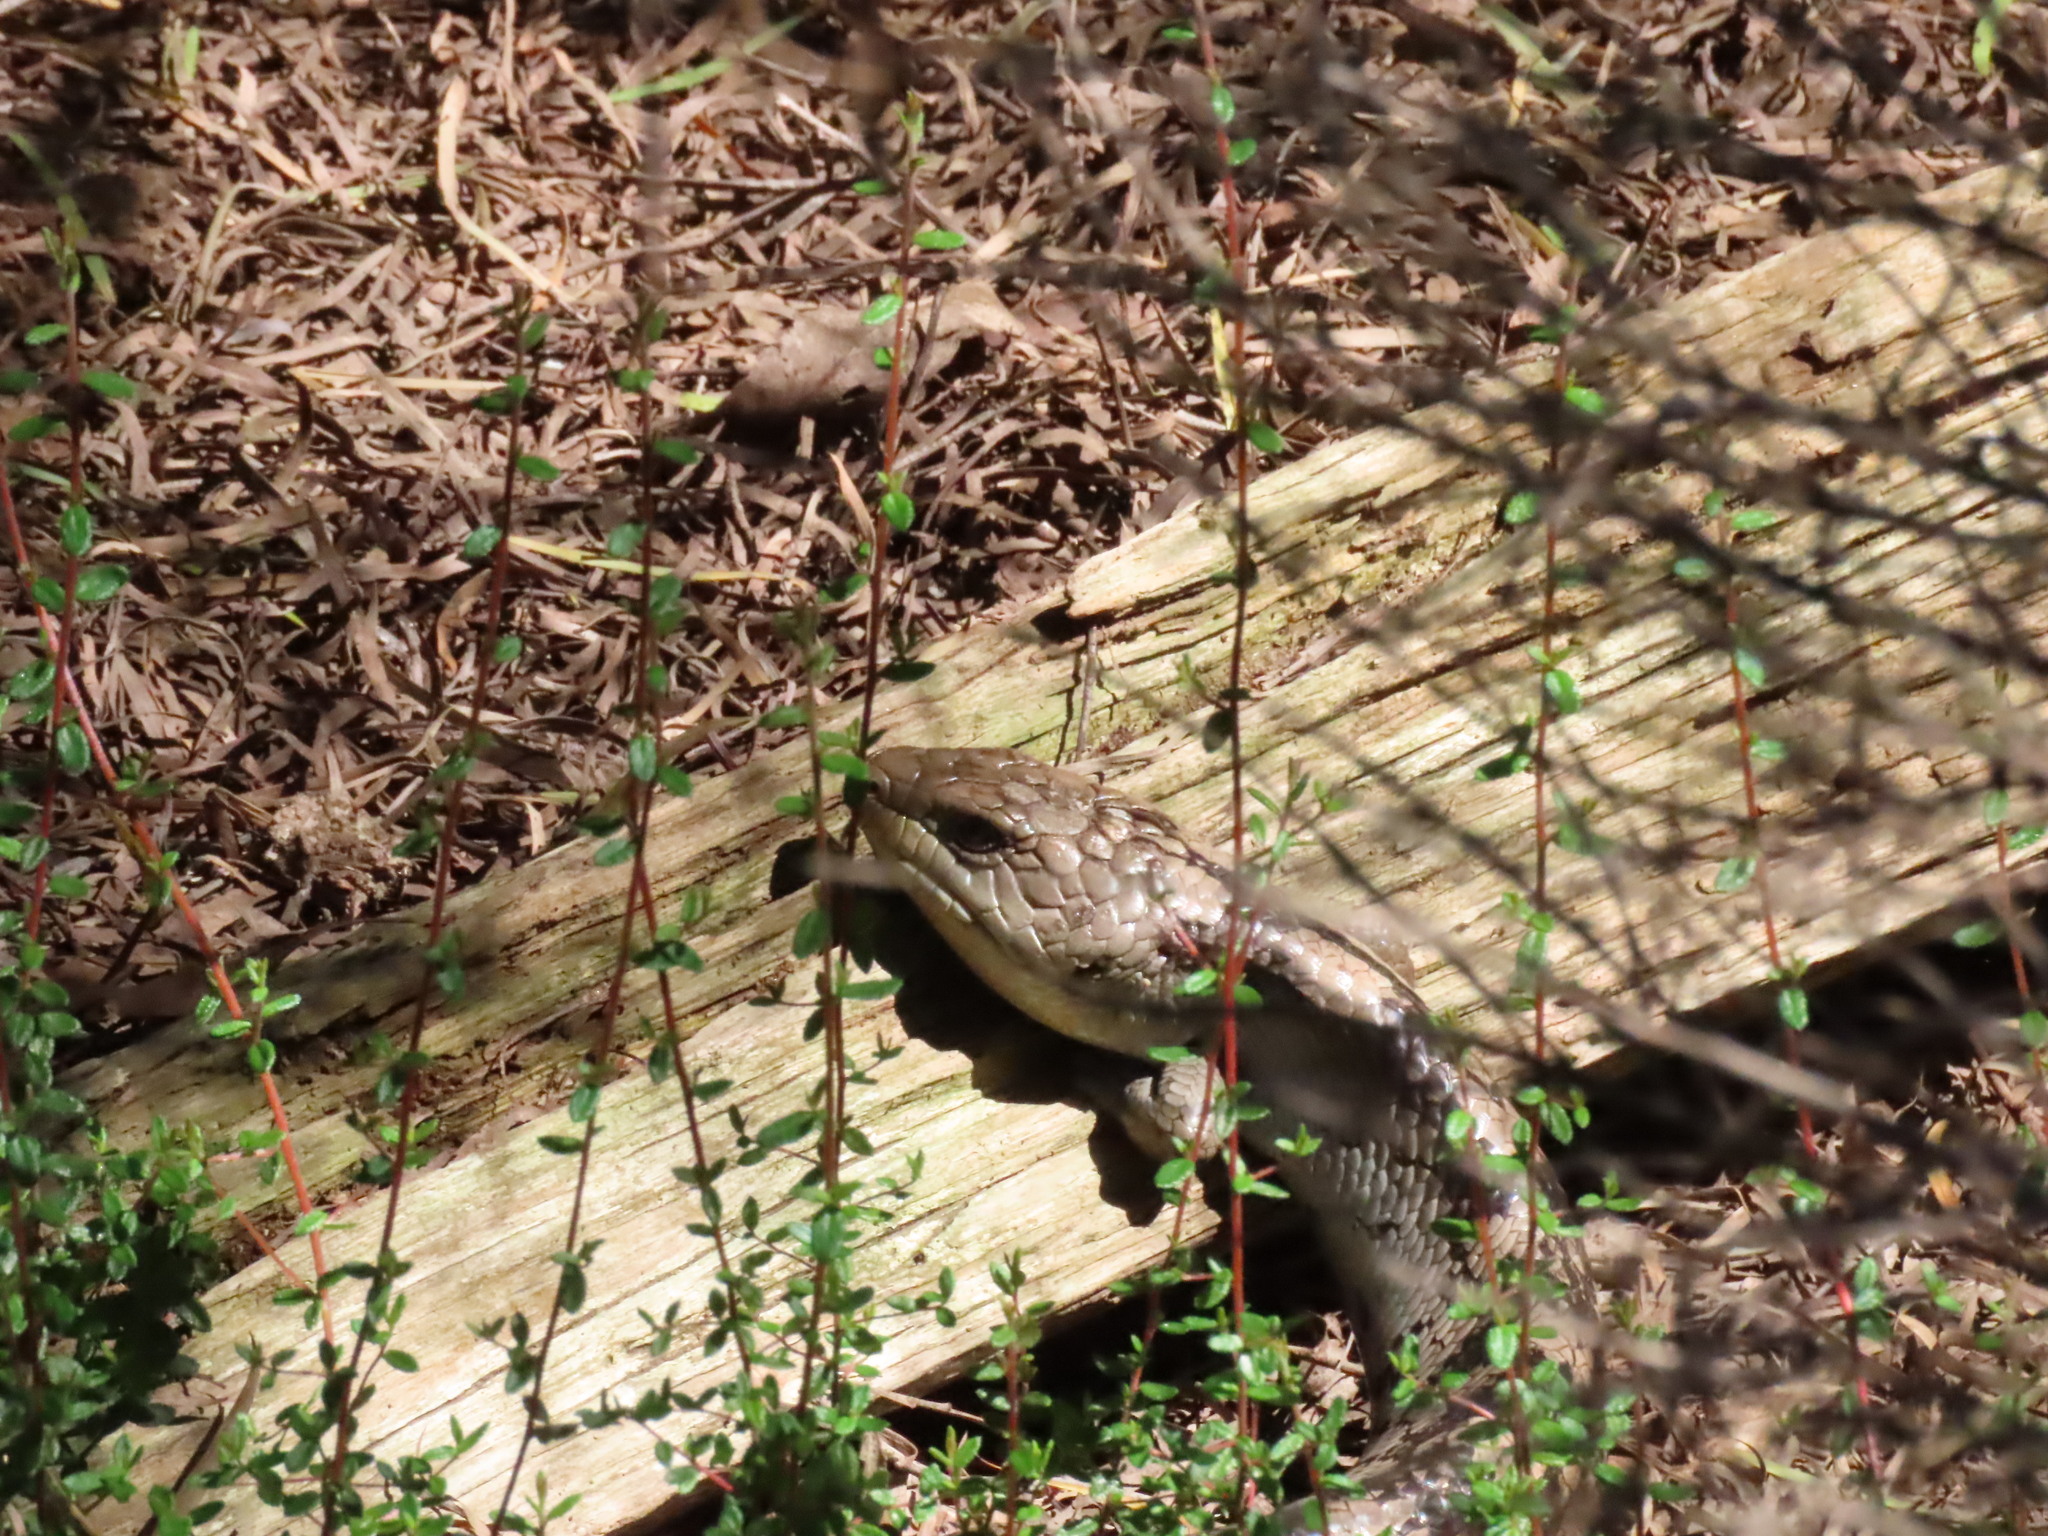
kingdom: Animalia
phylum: Chordata
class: Squamata
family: Scincidae
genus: Tiliqua
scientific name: Tiliqua nigrolutea
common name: Blotched blue-tongued lizard
